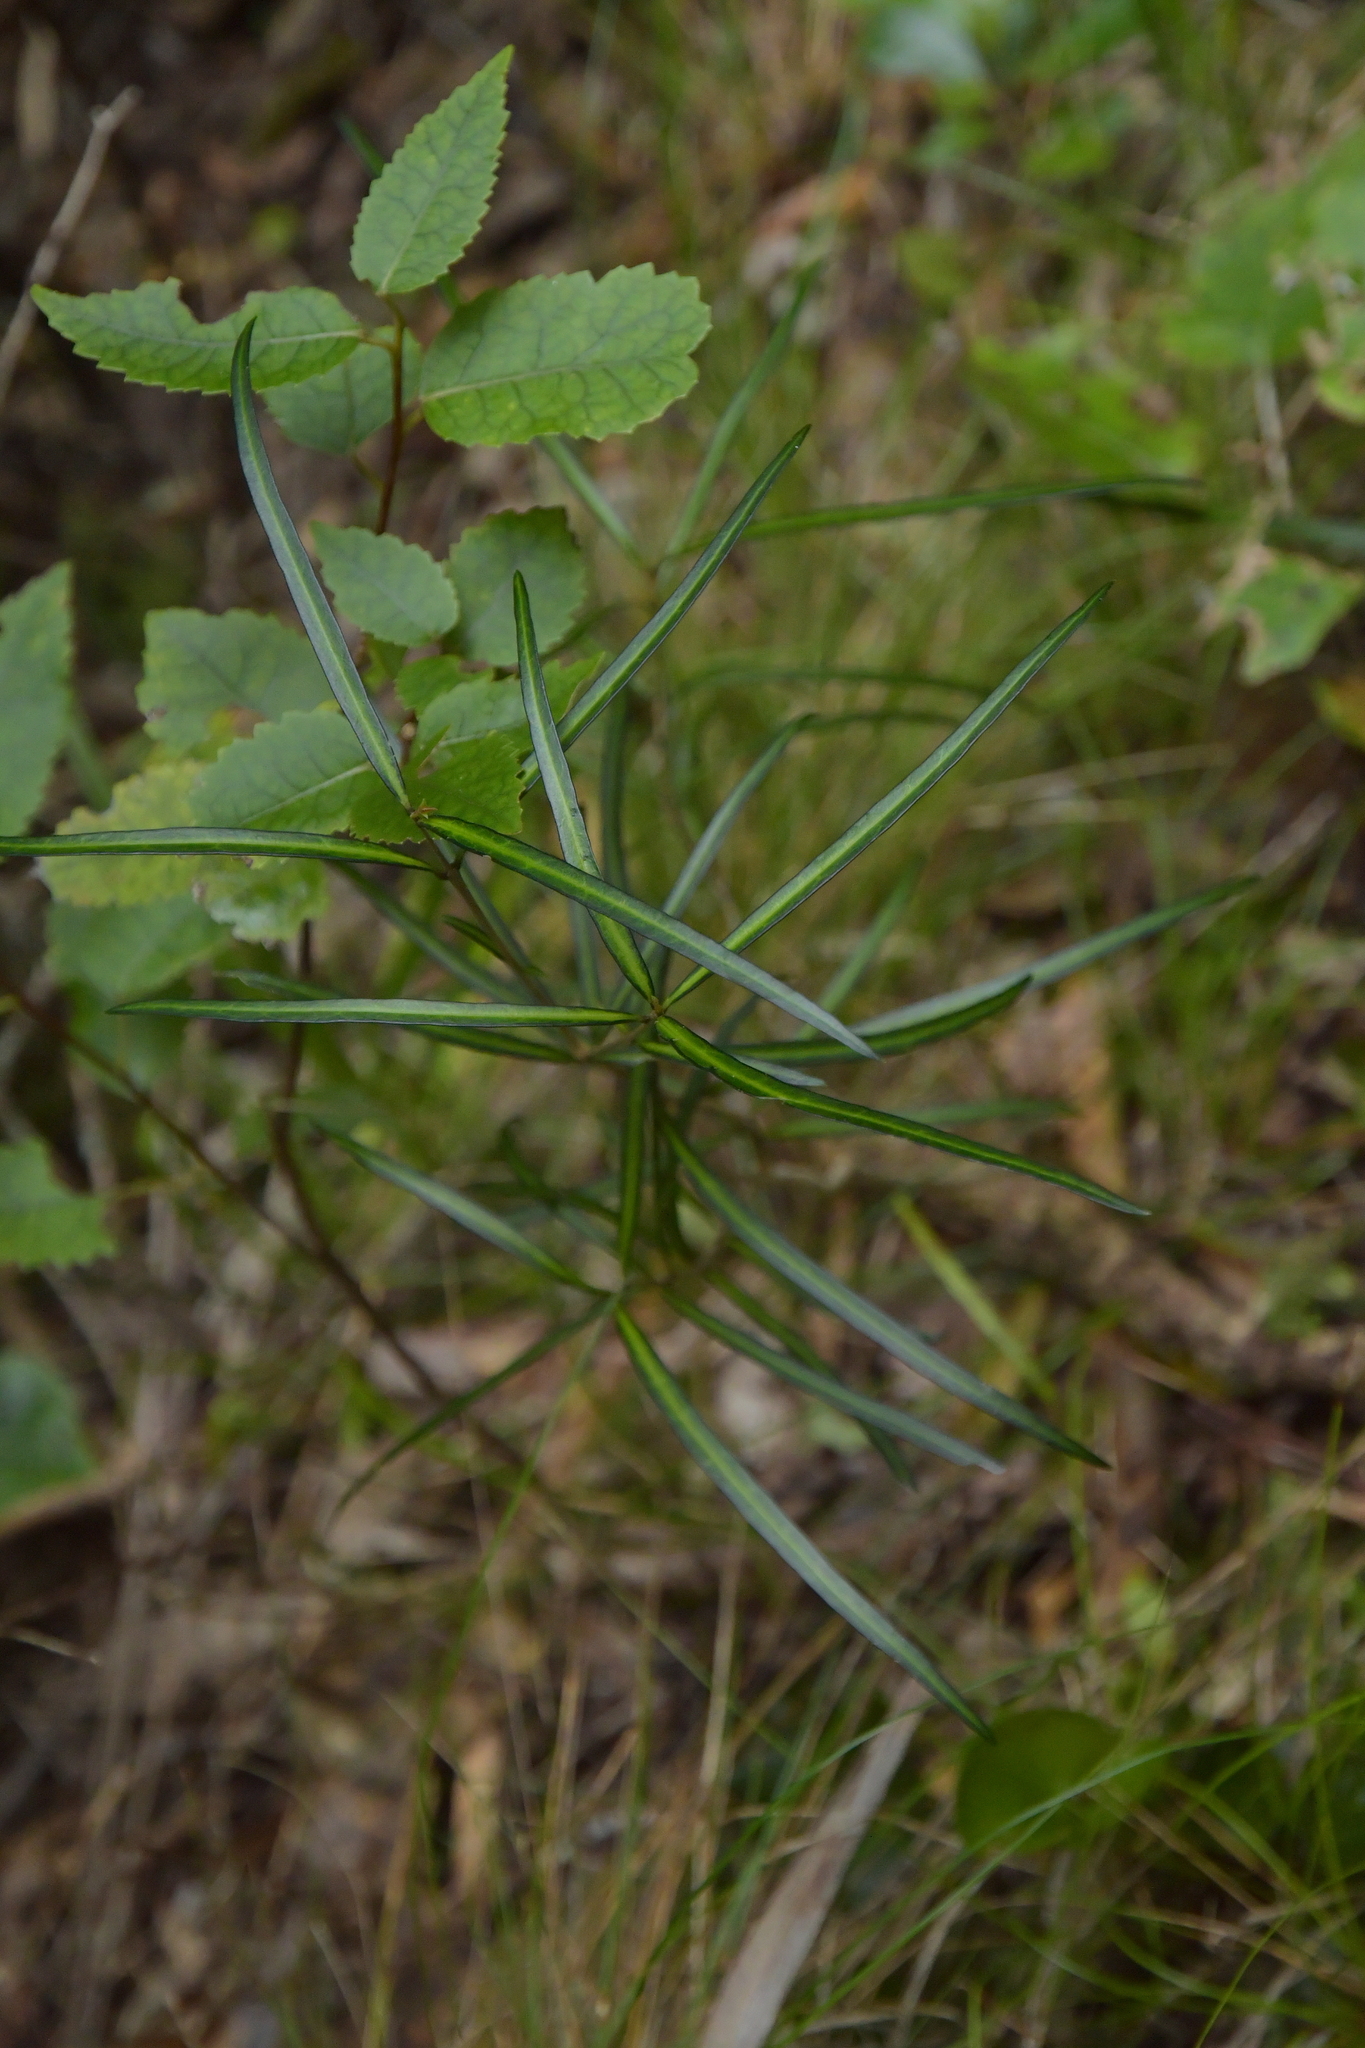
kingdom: Plantae
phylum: Tracheophyta
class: Magnoliopsida
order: Lamiales
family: Oleaceae
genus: Nestegis
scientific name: Nestegis lanceolata
